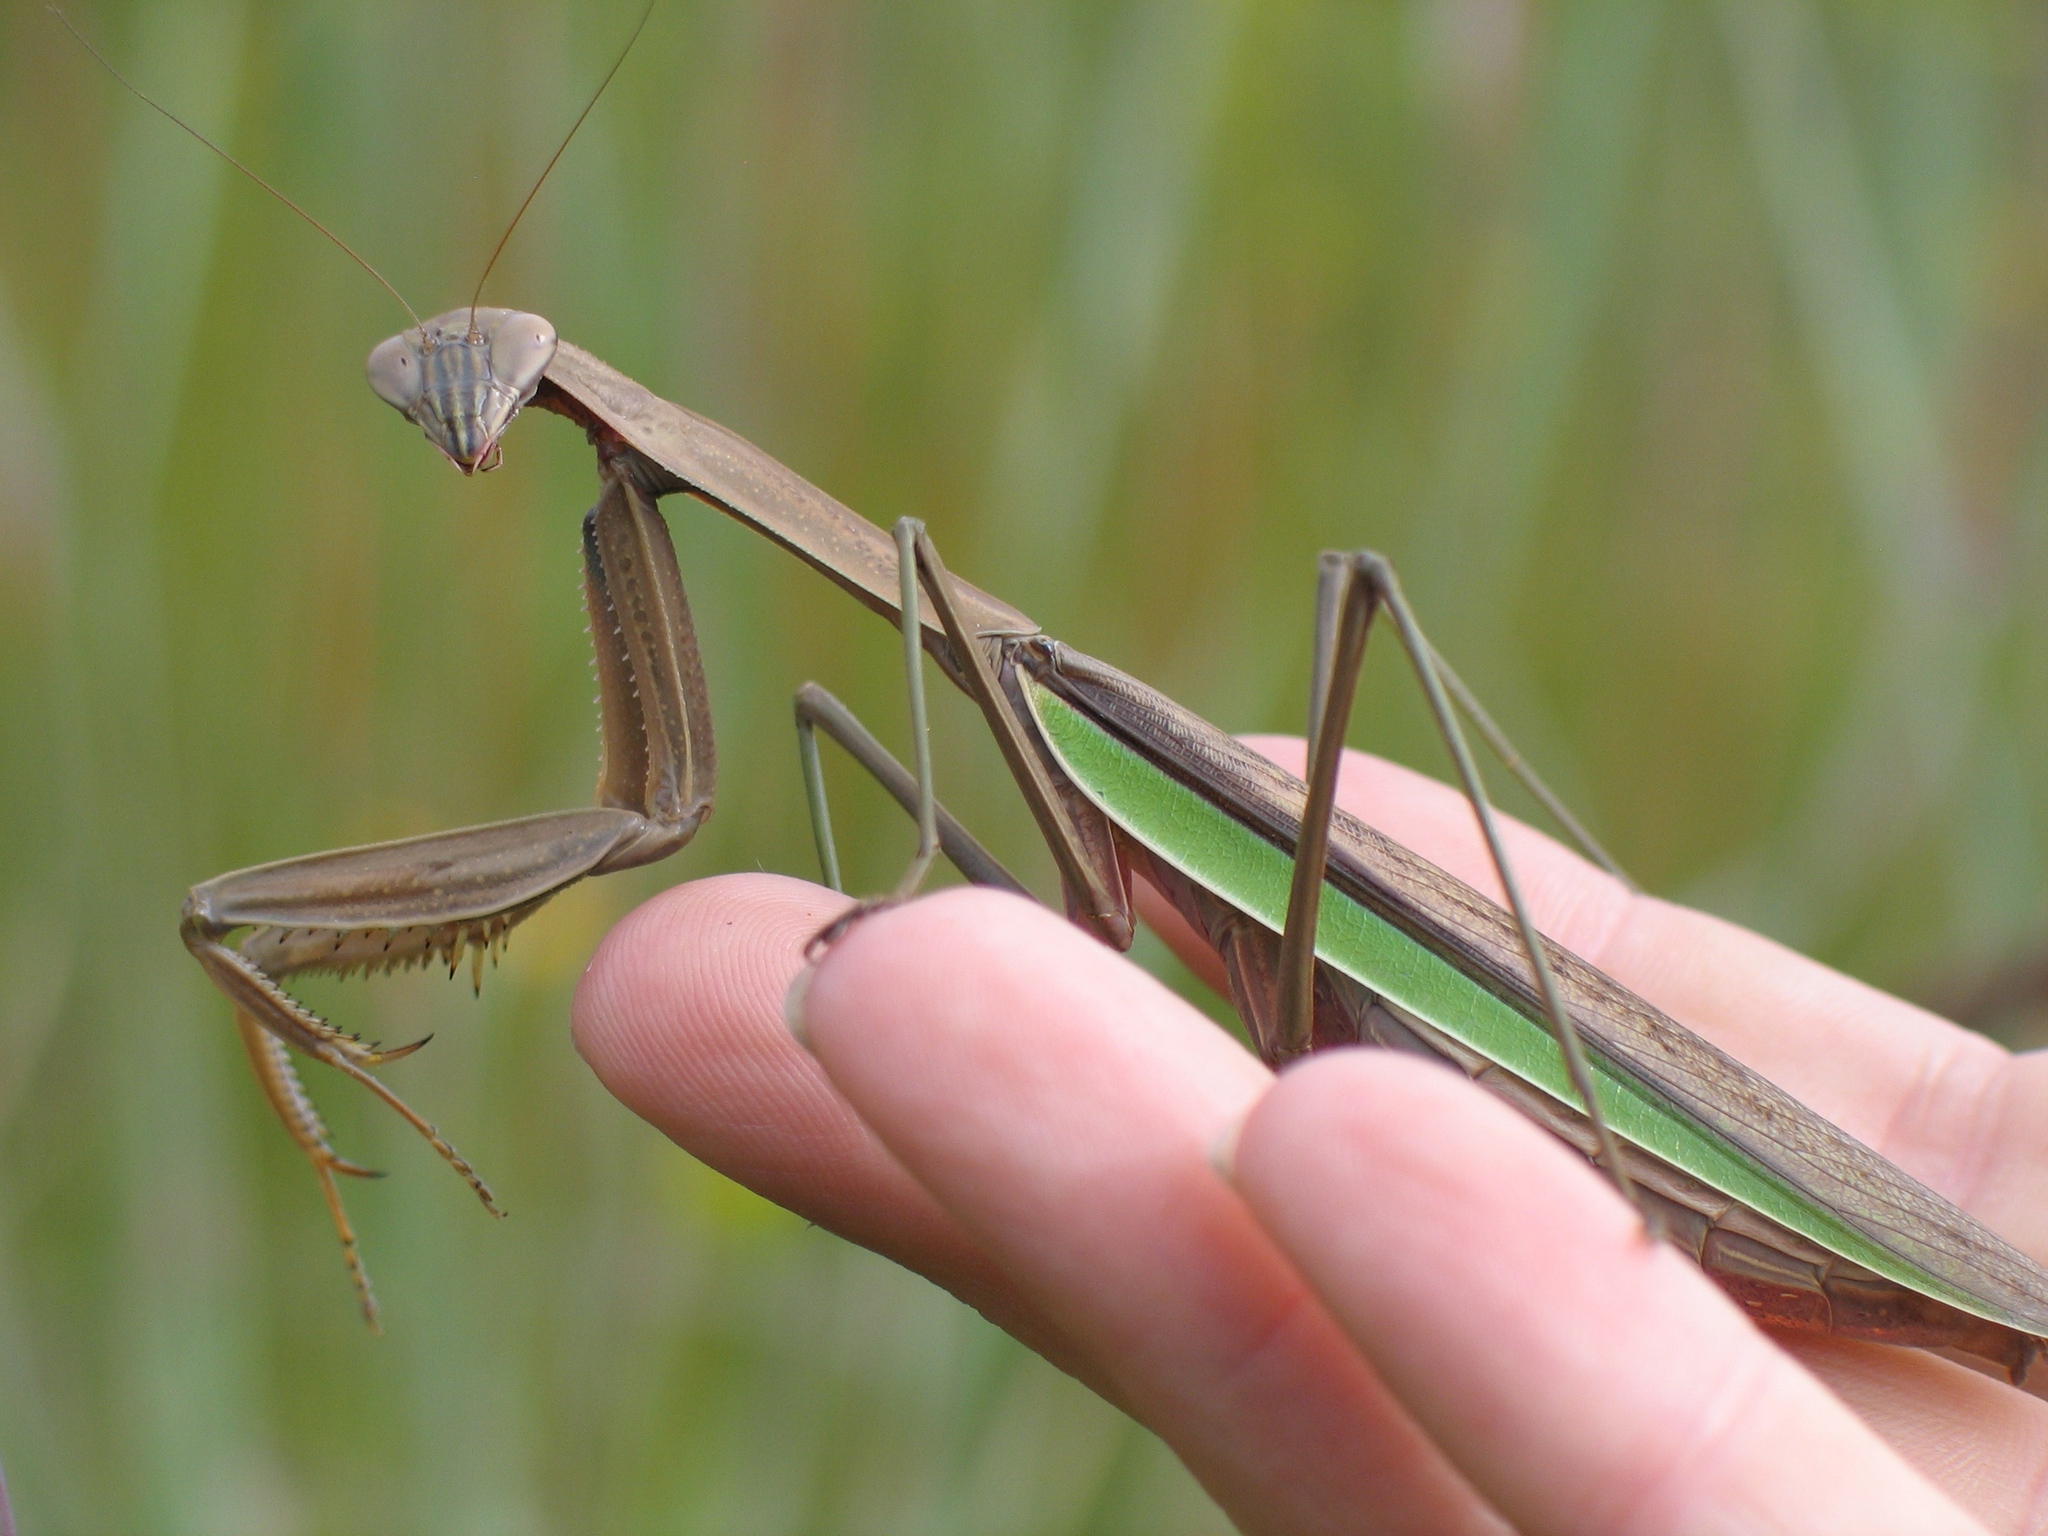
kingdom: Animalia
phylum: Arthropoda
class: Insecta
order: Mantodea
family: Mantidae
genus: Tenodera
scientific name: Tenodera sinensis
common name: Chinese mantis
